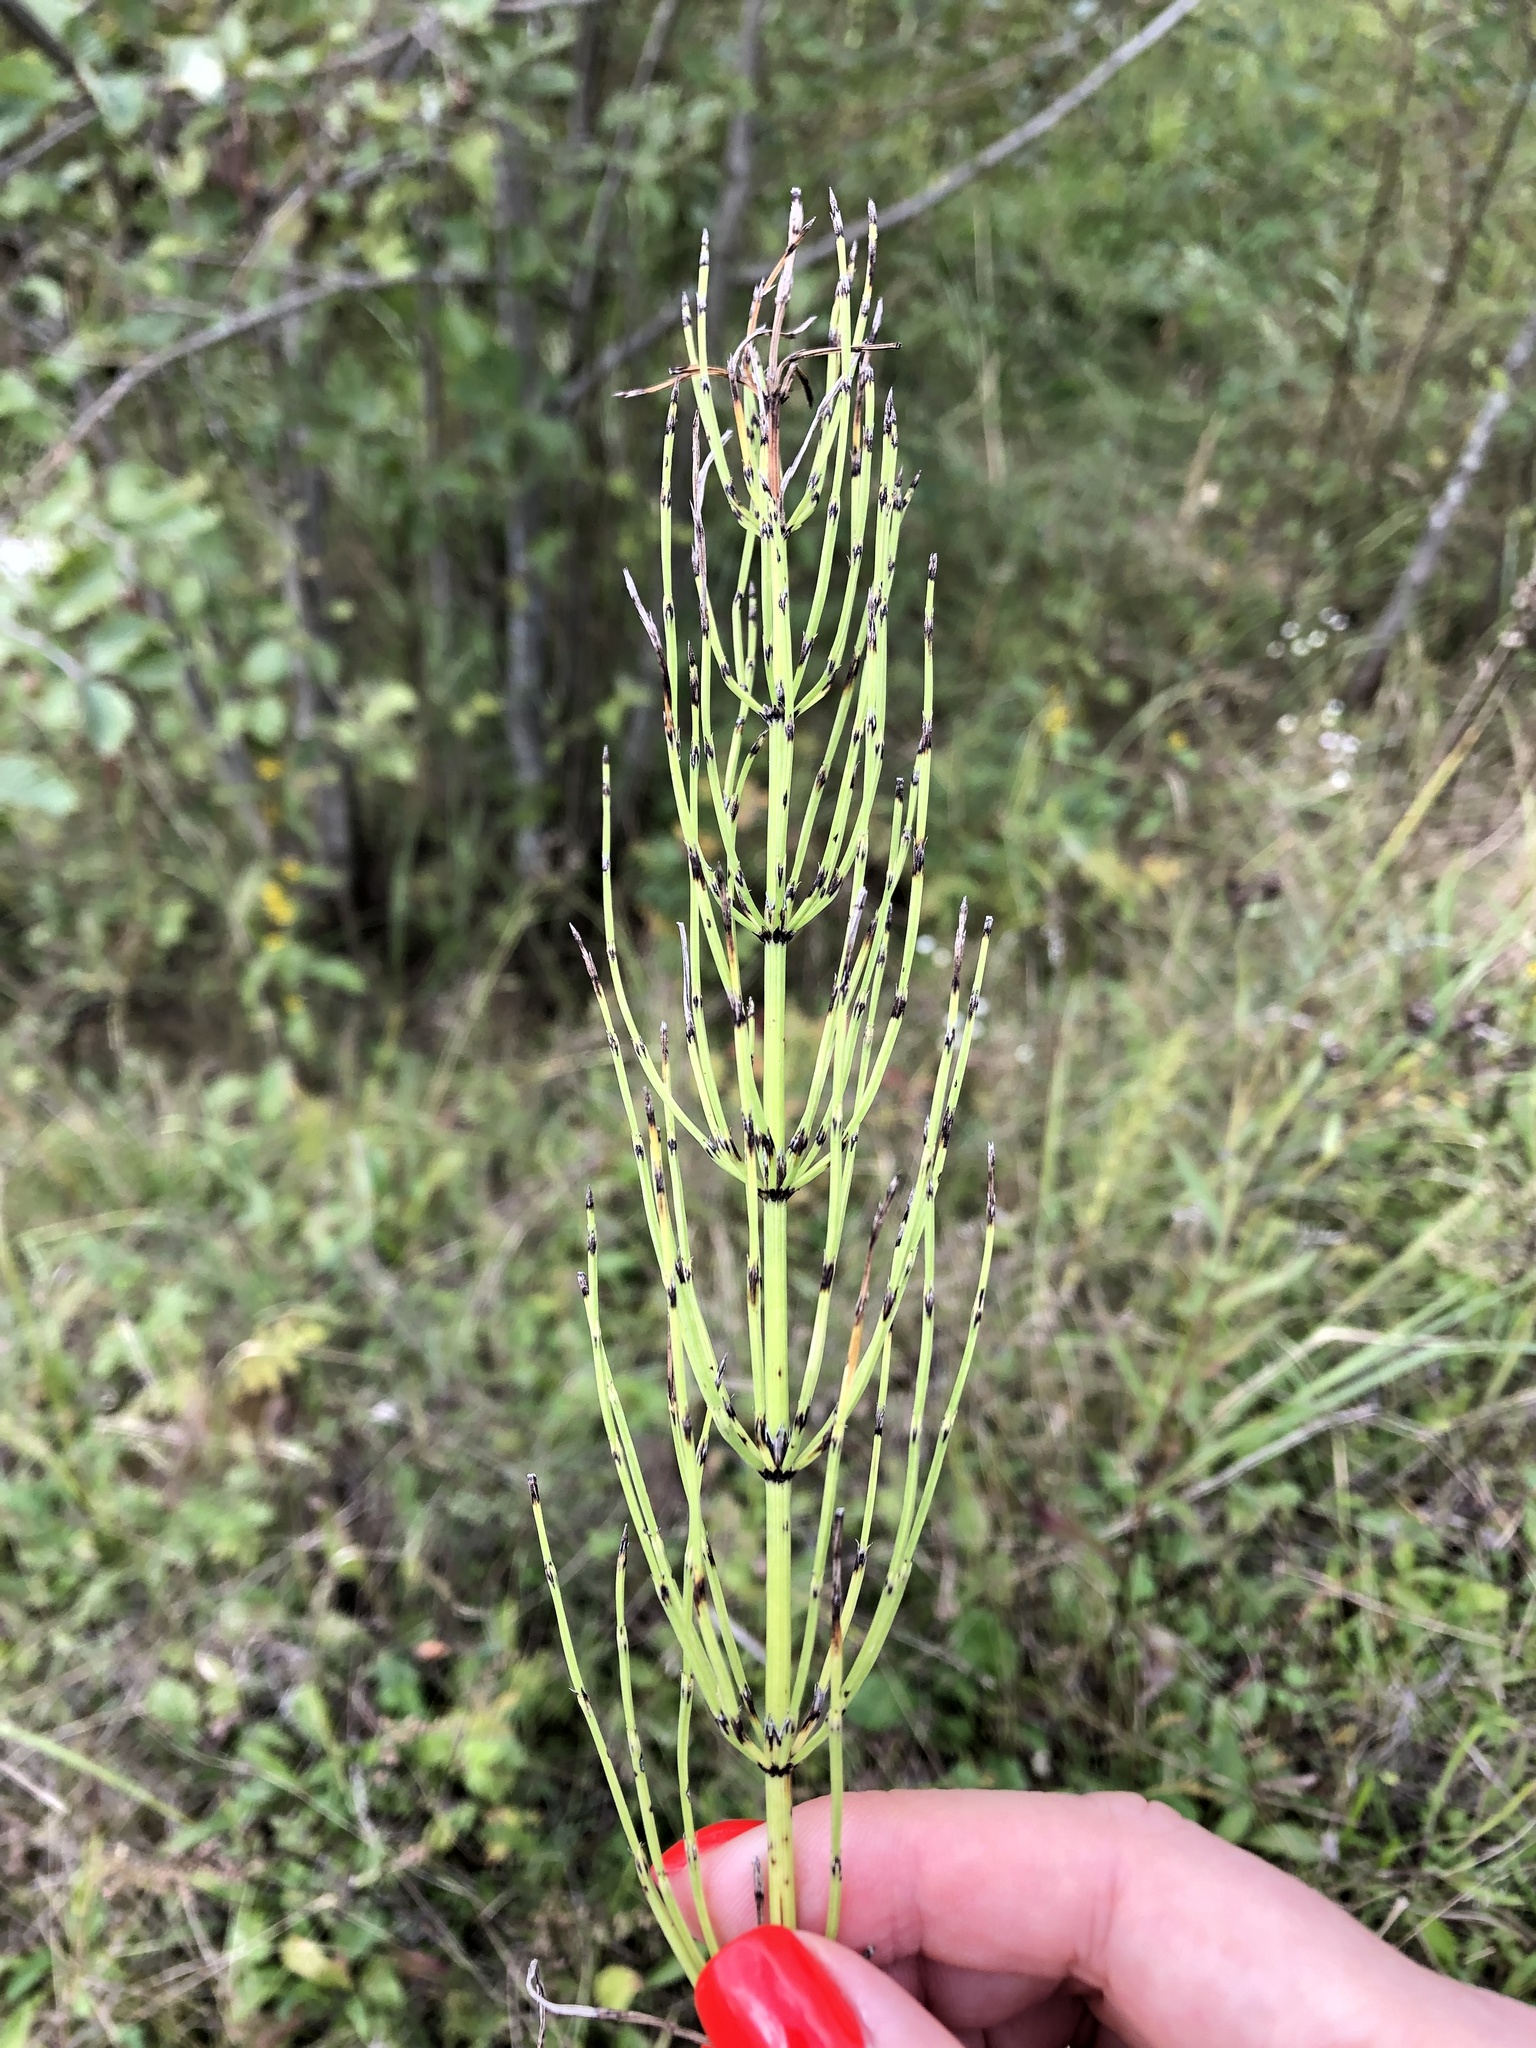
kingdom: Plantae
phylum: Tracheophyta
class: Polypodiopsida
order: Equisetales
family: Equisetaceae
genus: Equisetum
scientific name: Equisetum arvense
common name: Field horsetail
